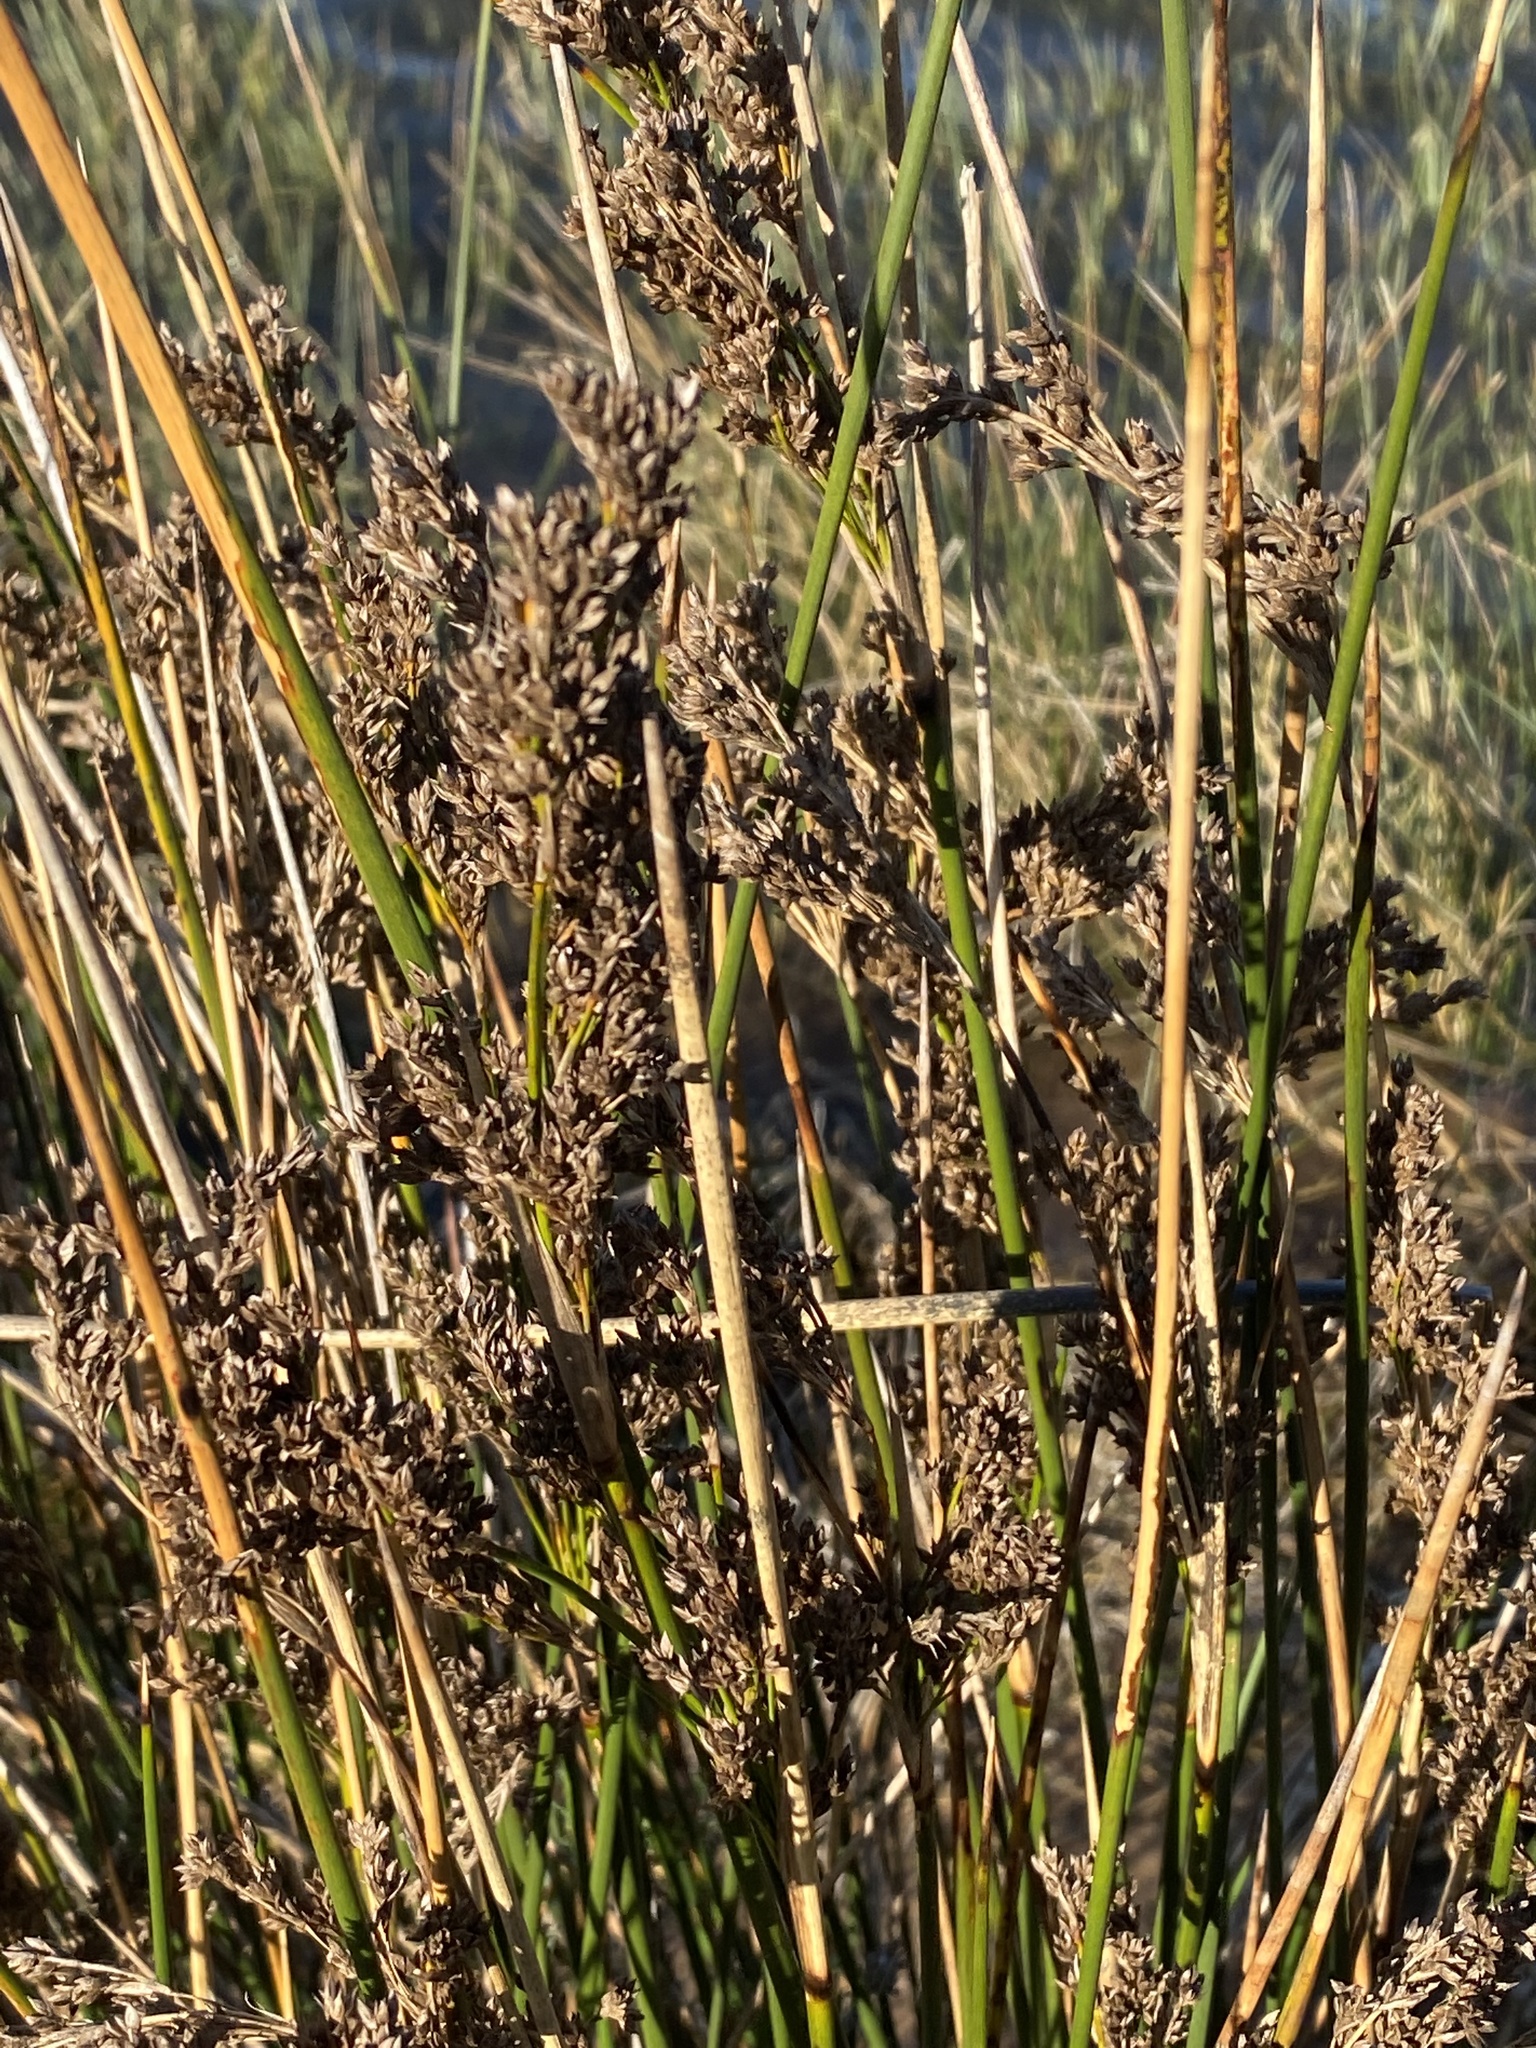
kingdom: Plantae
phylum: Tracheophyta
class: Liliopsida
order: Poales
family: Juncaceae
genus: Juncus
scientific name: Juncus kraussii
